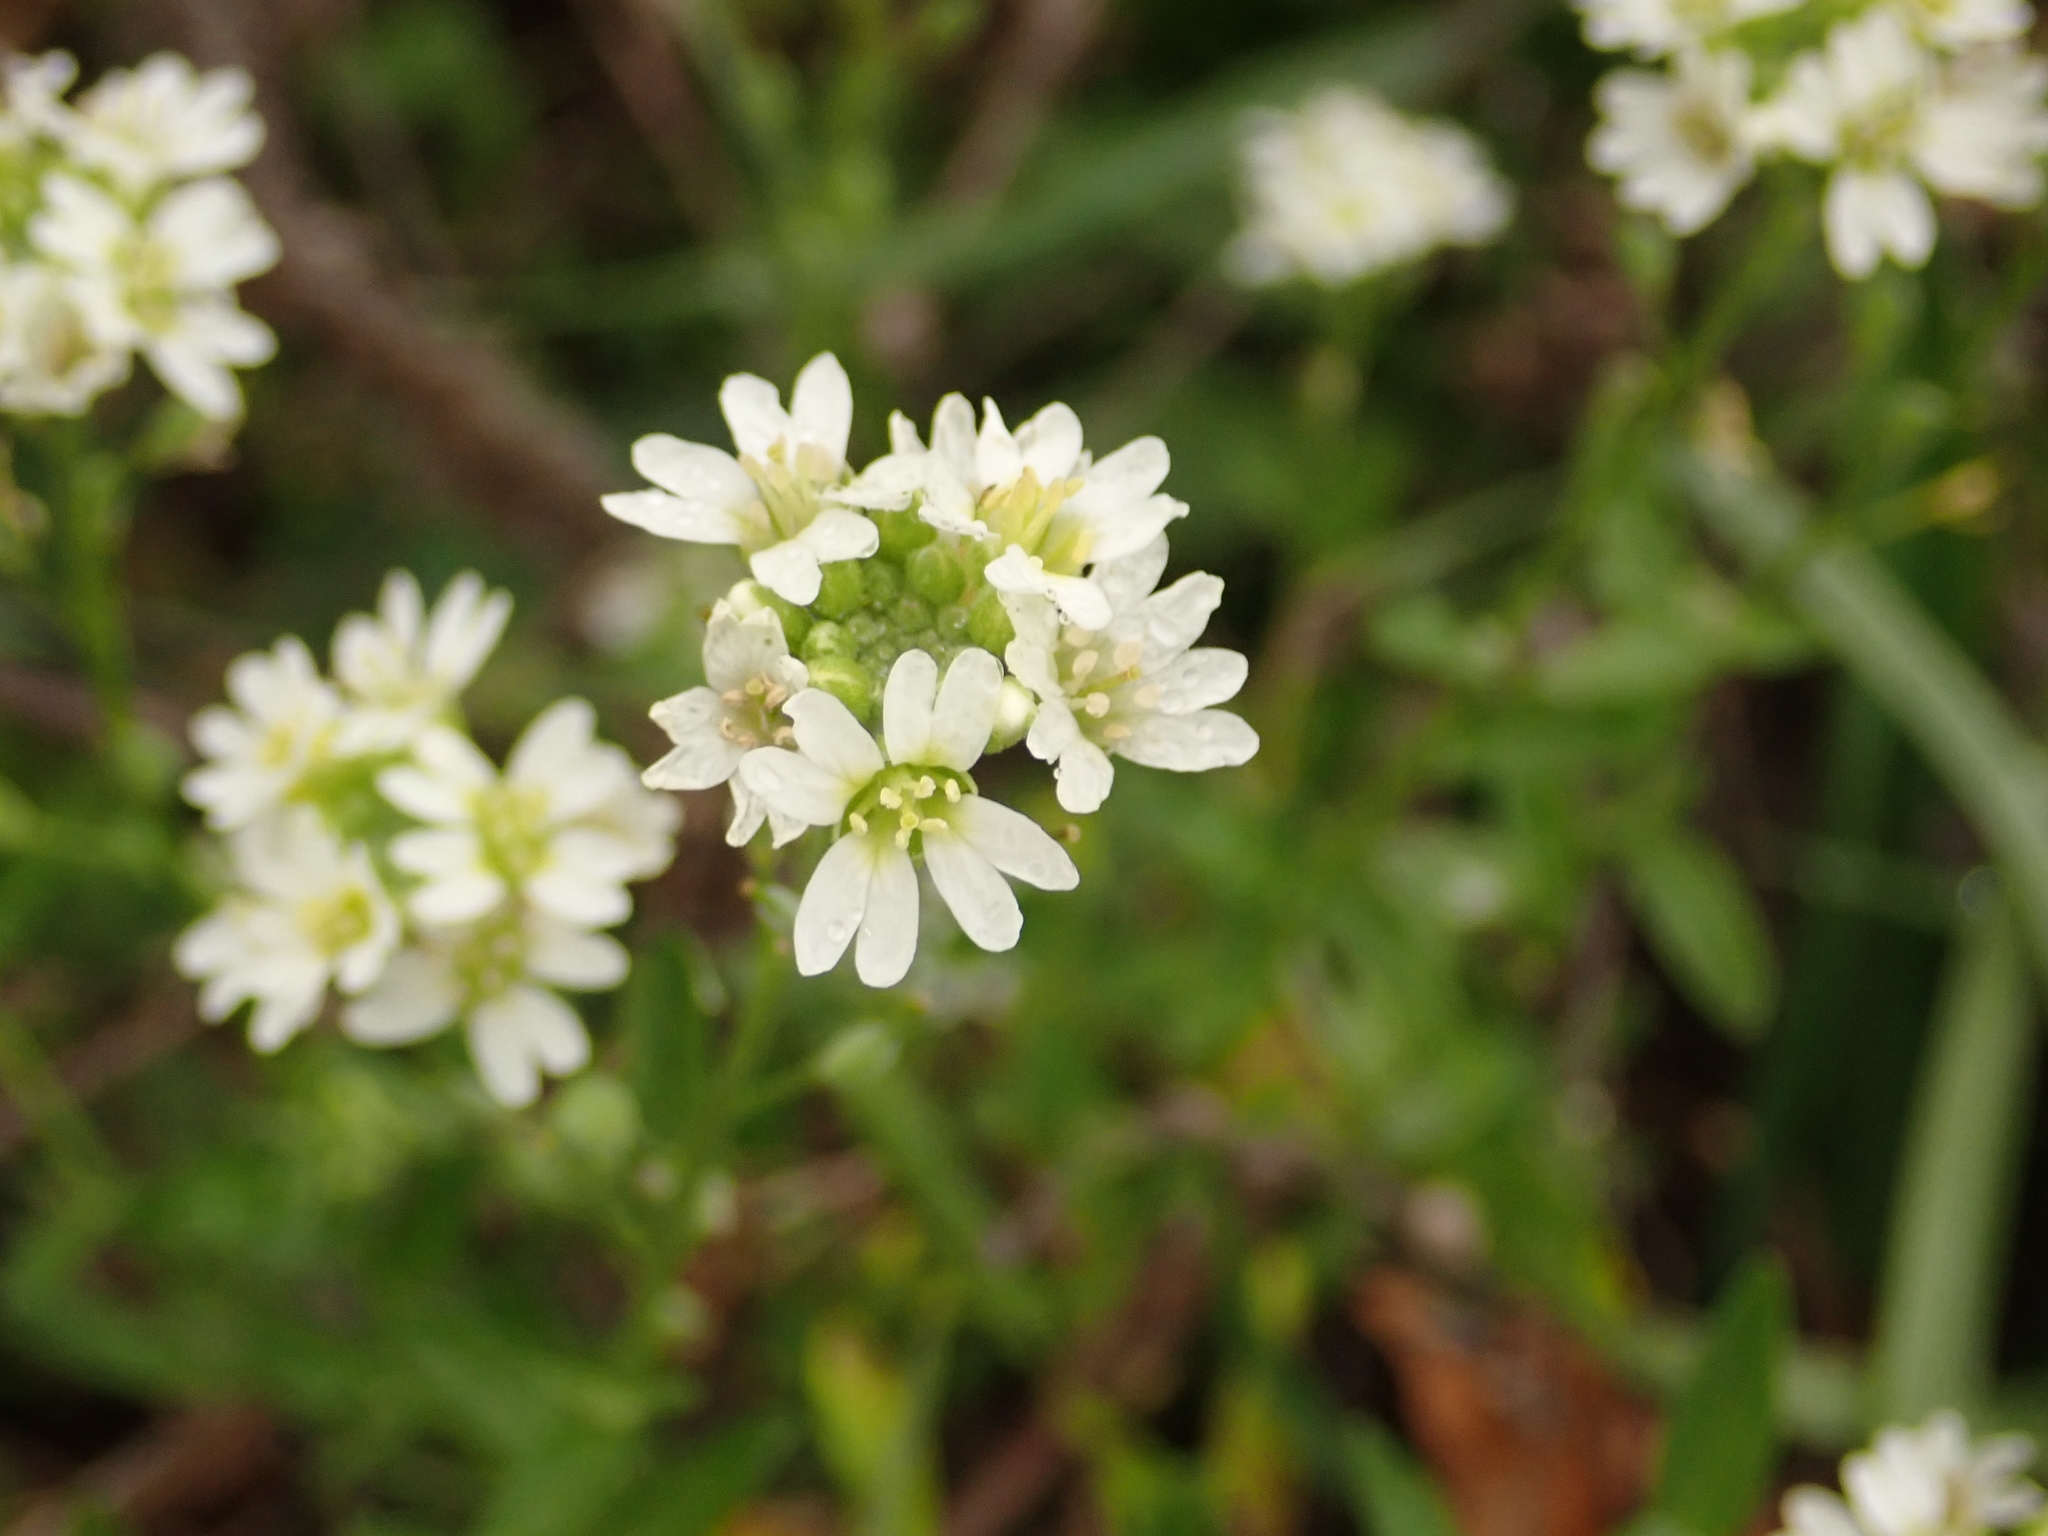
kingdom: Plantae
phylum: Tracheophyta
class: Magnoliopsida
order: Brassicales
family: Brassicaceae
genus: Berteroa
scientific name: Berteroa incana
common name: Hoary alison
